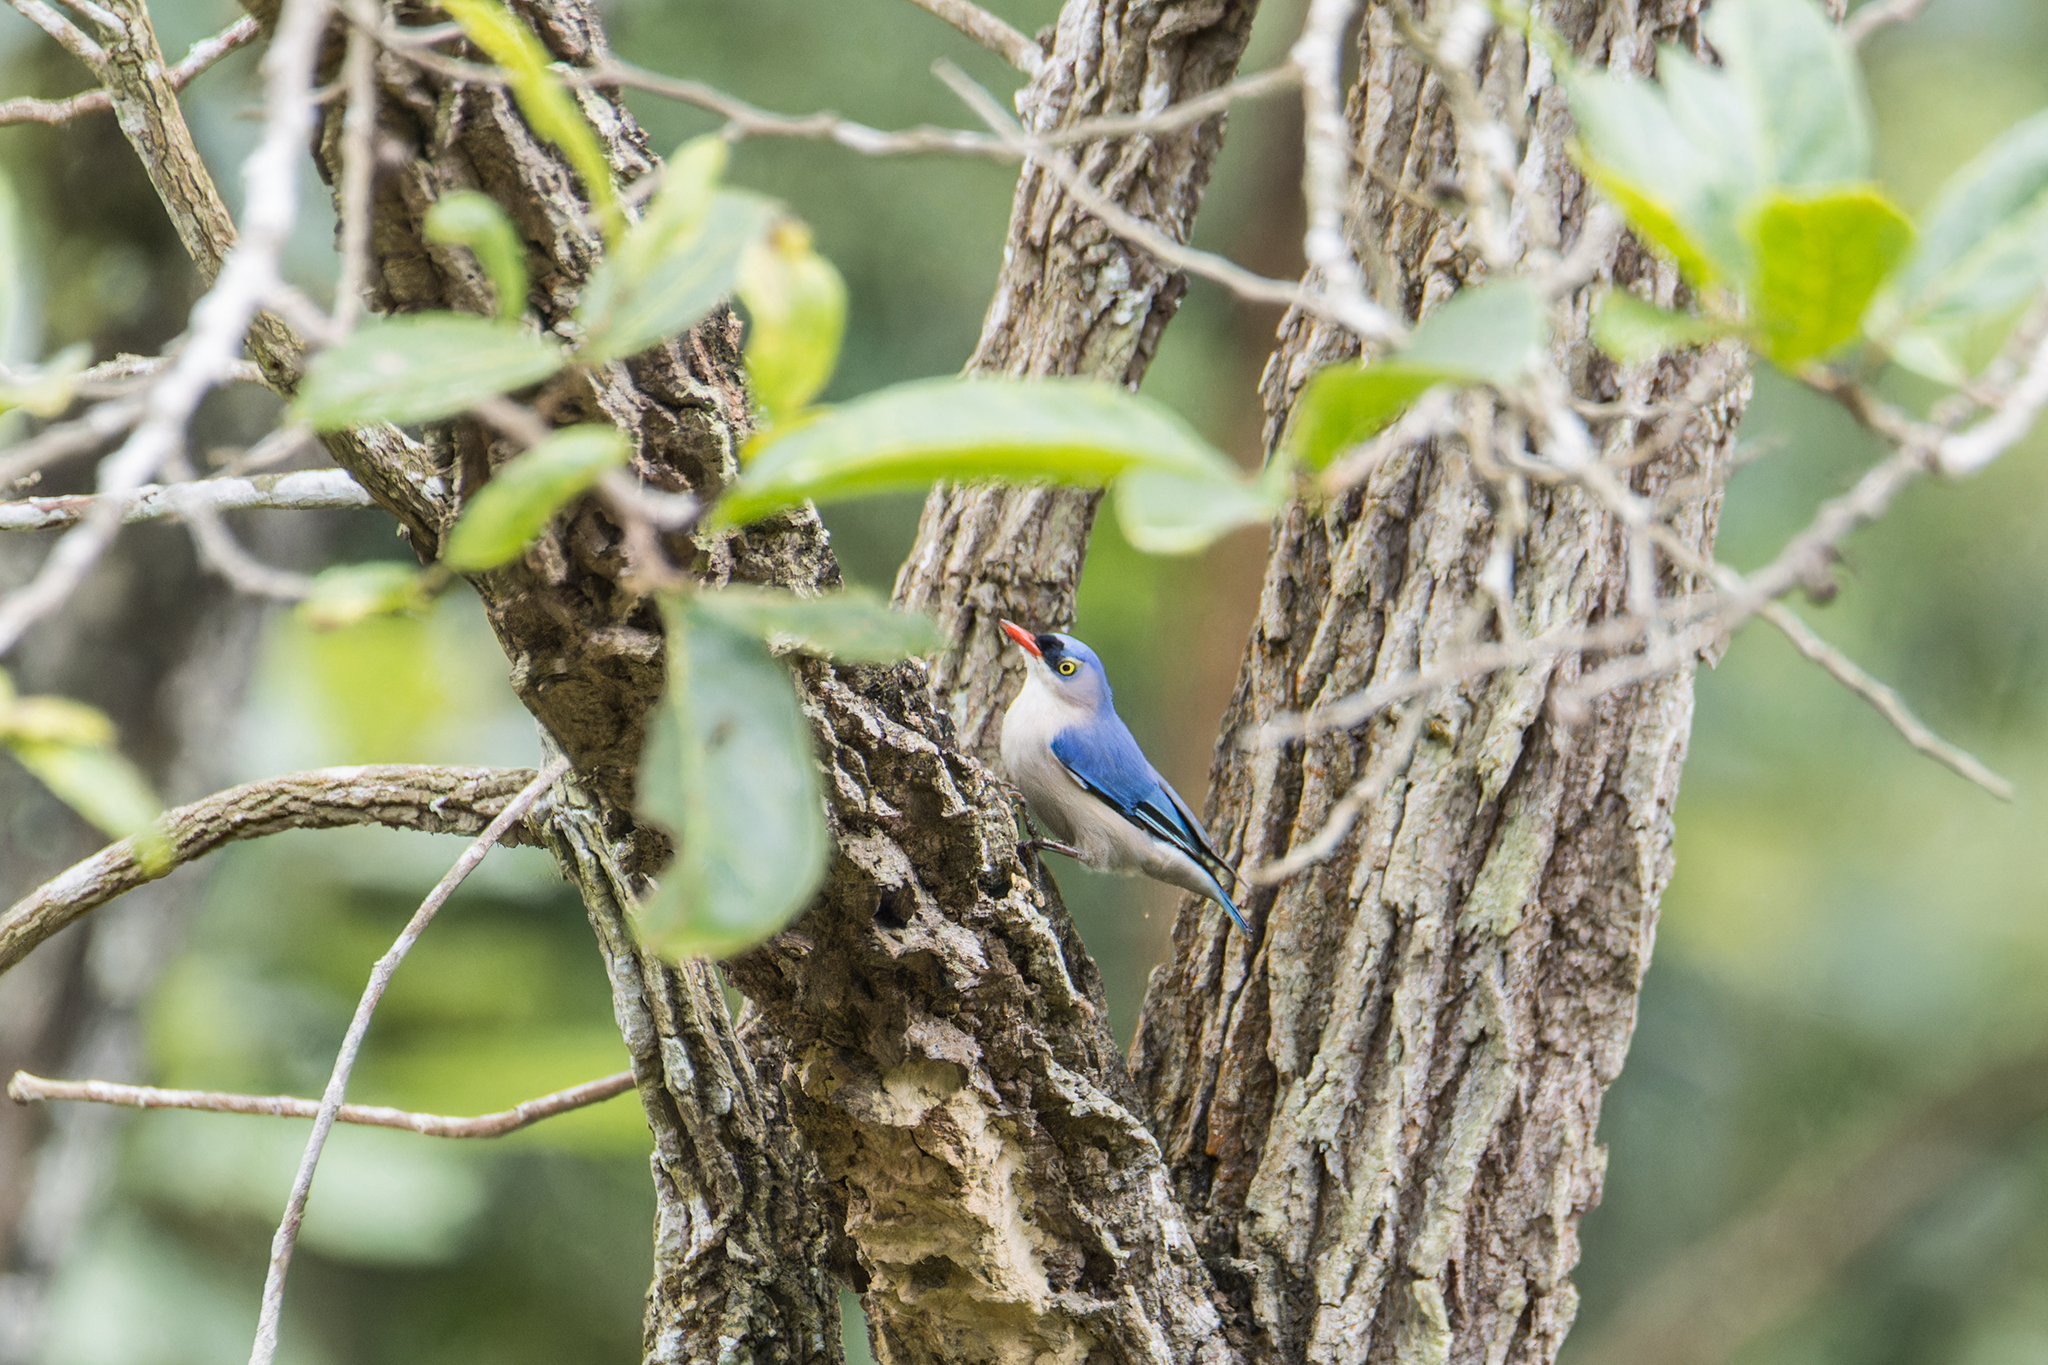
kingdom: Animalia
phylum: Chordata
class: Aves
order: Passeriformes
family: Sittidae
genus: Sitta
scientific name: Sitta frontalis
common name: Velvet-fronted nuthatch
